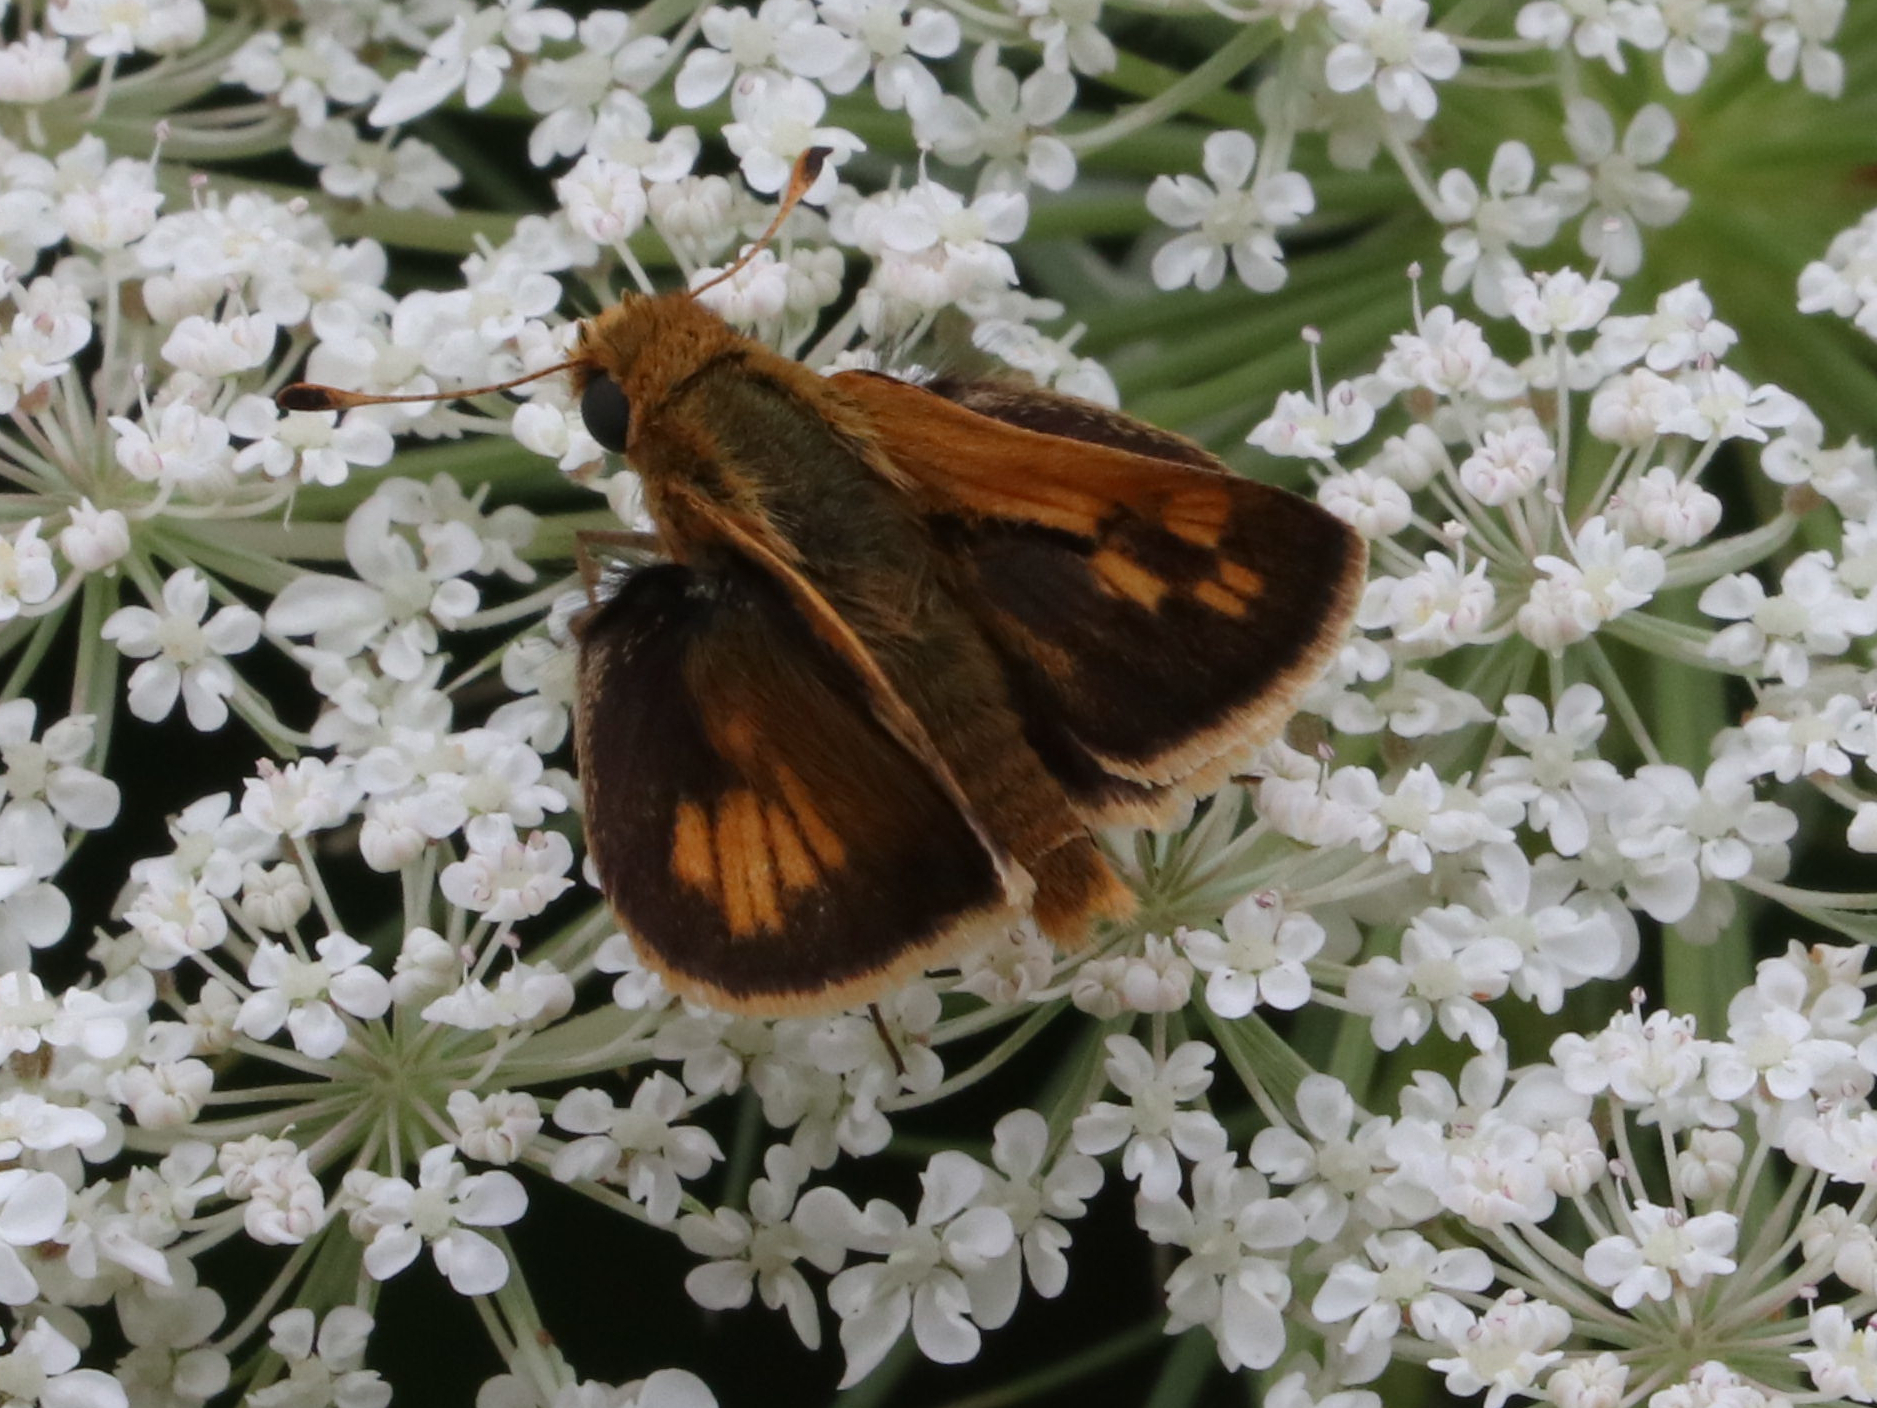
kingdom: Animalia
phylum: Arthropoda
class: Insecta
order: Lepidoptera
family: Hesperiidae
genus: Polites
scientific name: Polites coras
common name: Peck's skipper
